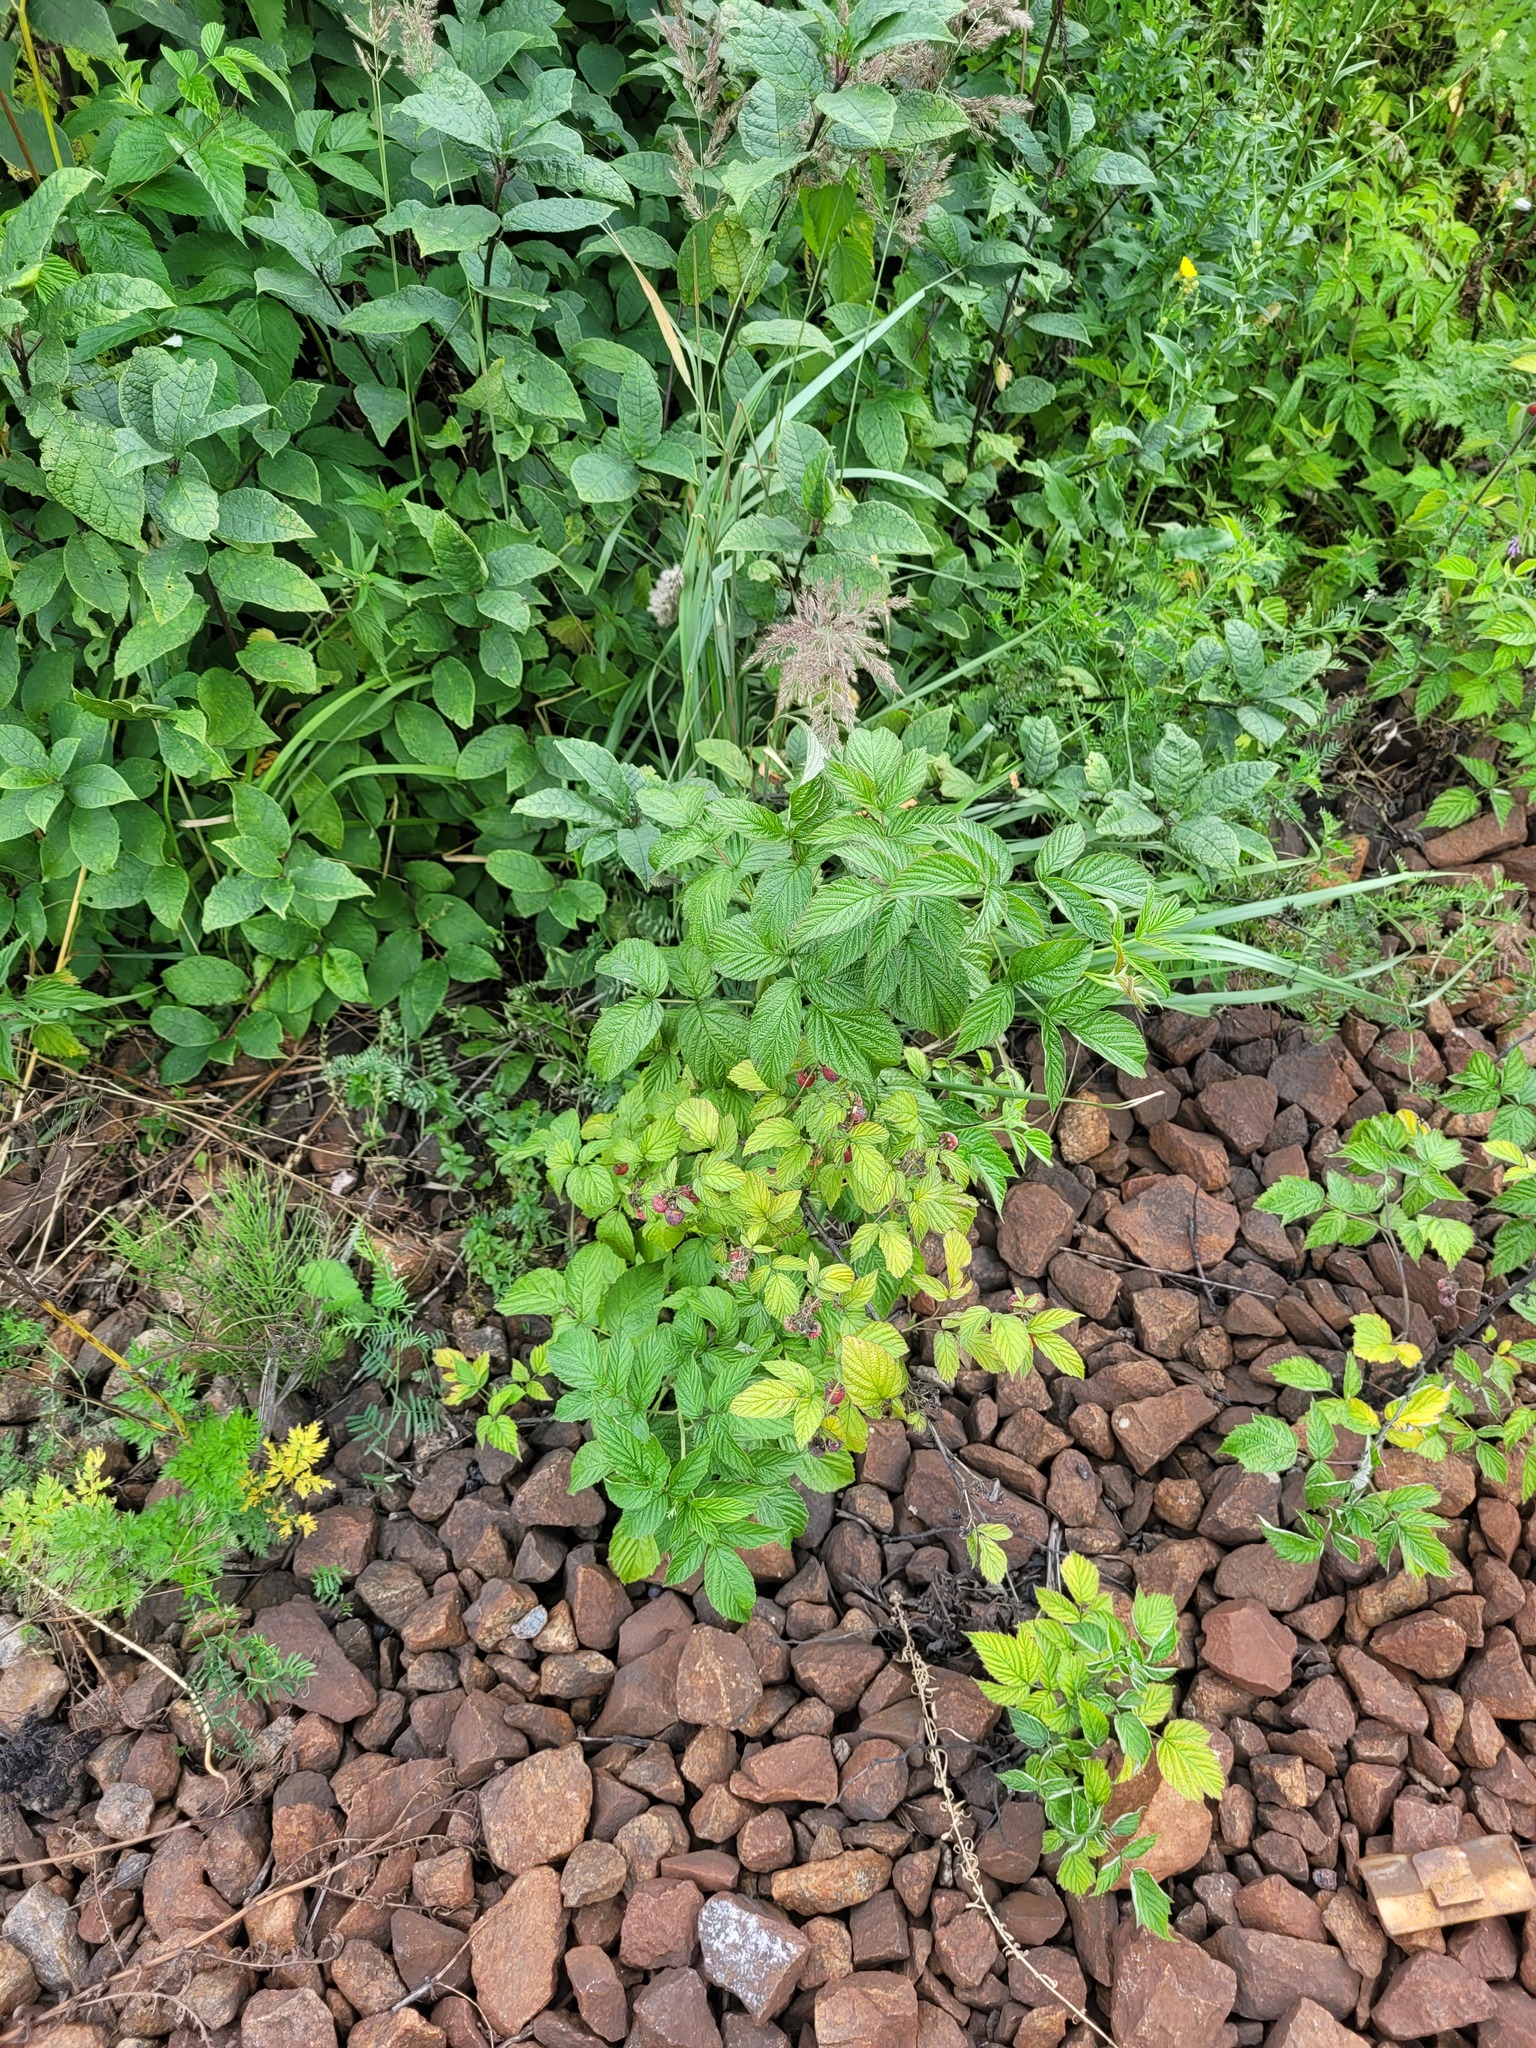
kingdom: Plantae
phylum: Tracheophyta
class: Magnoliopsida
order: Rosales
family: Rosaceae
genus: Rubus
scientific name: Rubus idaeus
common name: Raspberry
